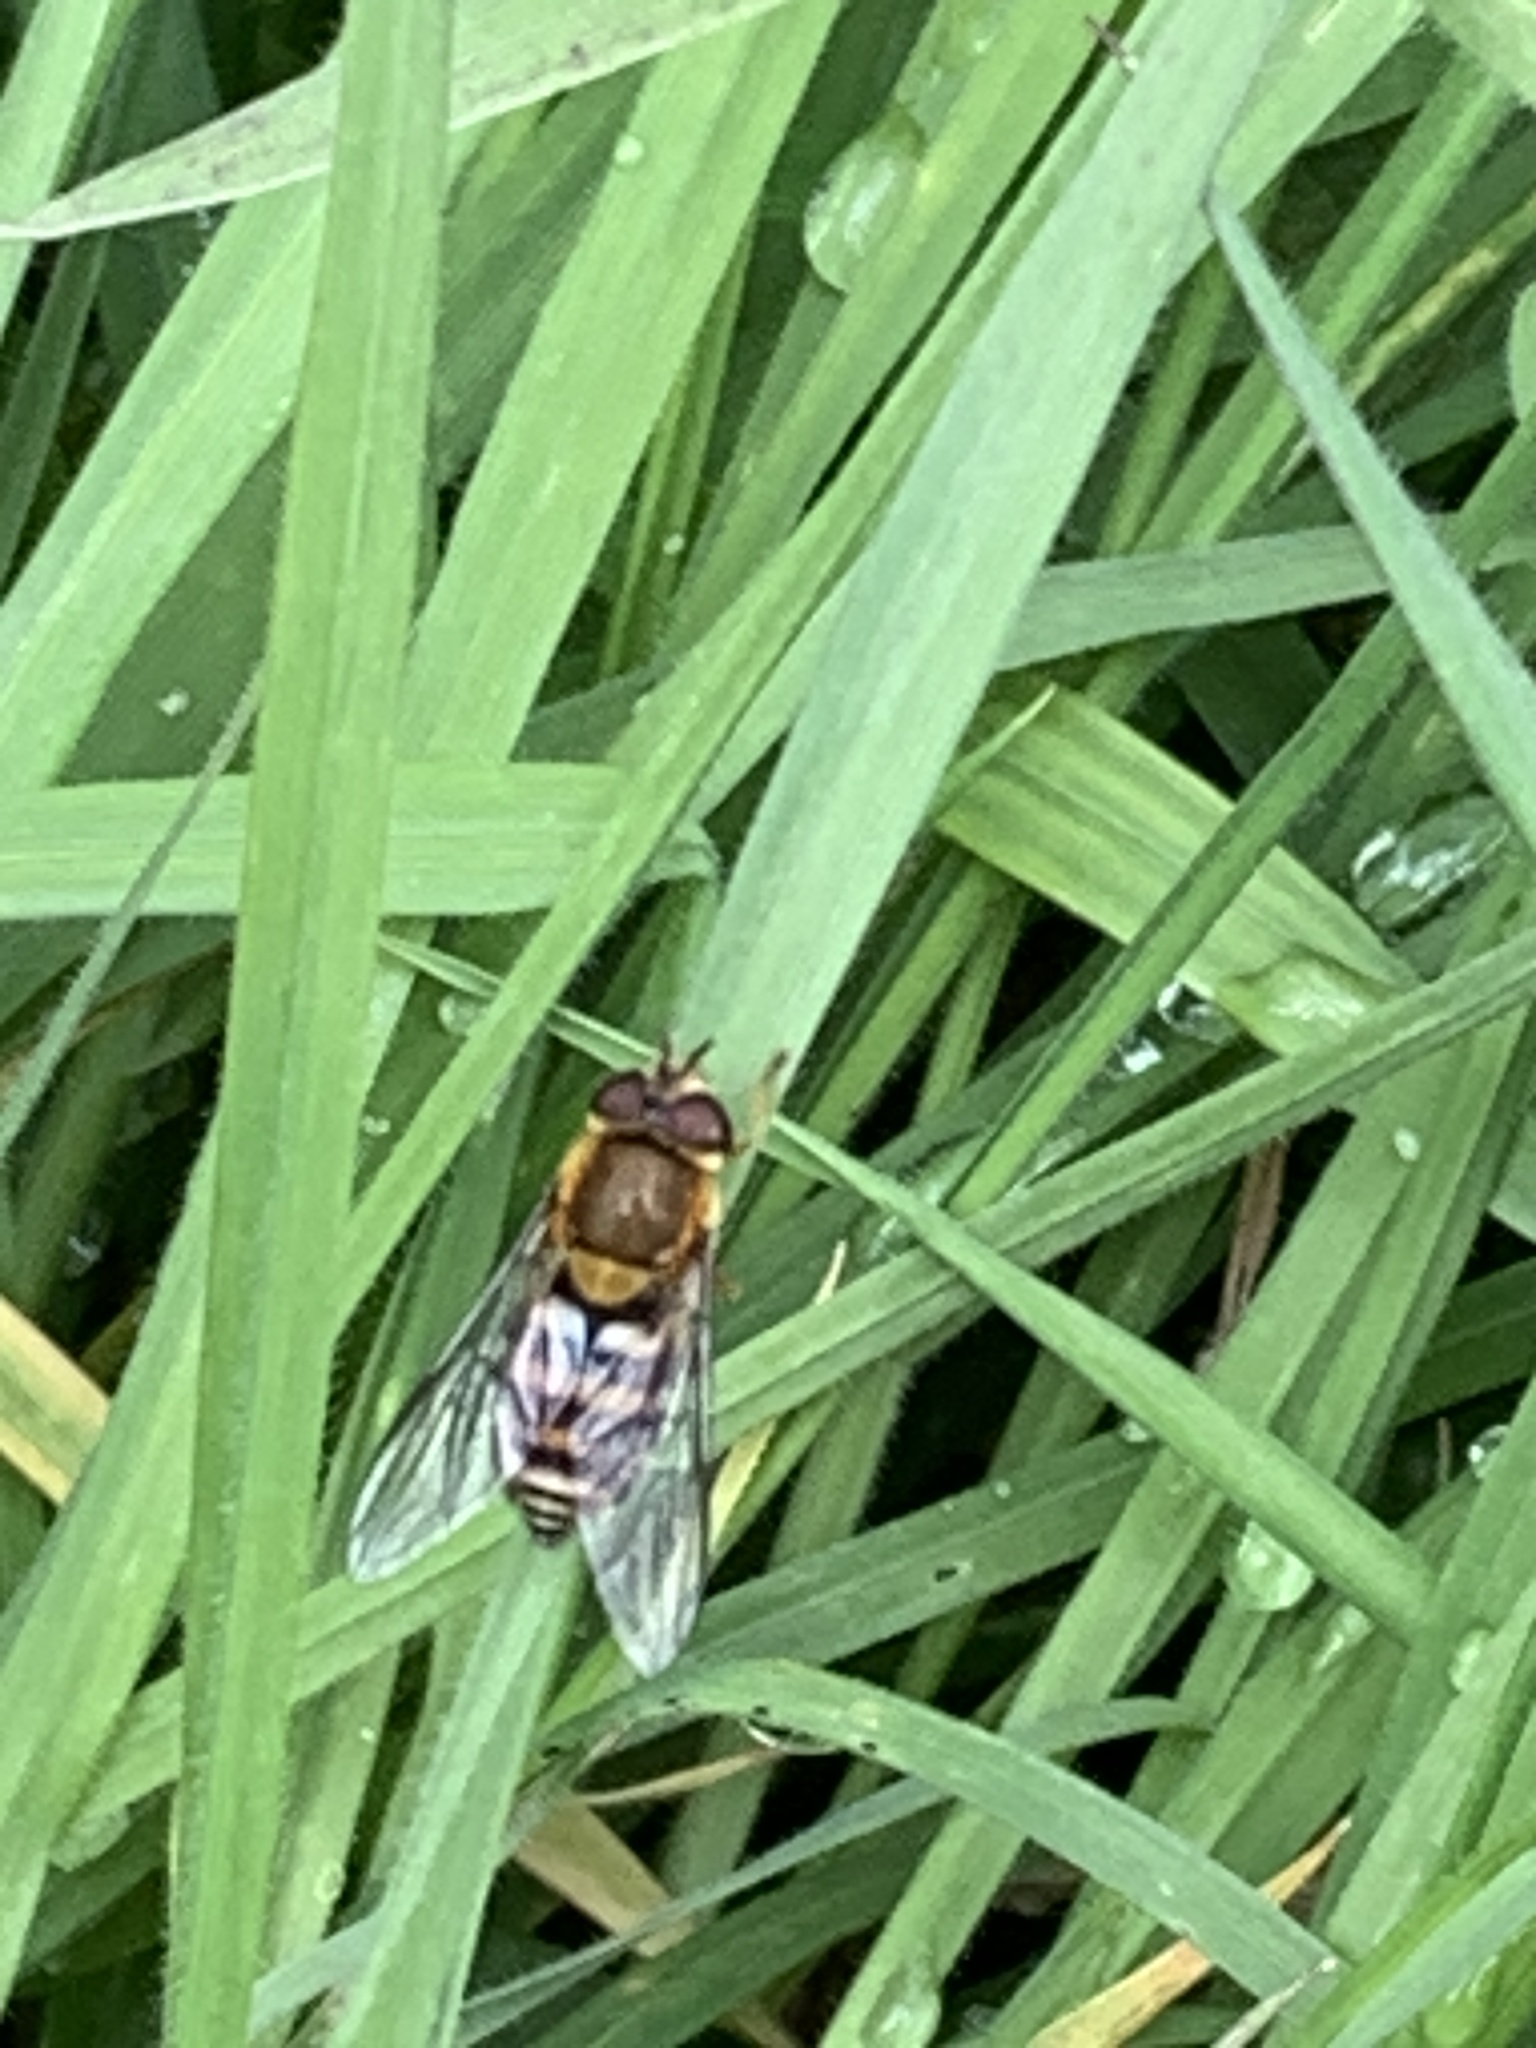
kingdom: Animalia
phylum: Arthropoda
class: Insecta
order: Diptera
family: Syrphidae
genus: Syrphus
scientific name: Syrphus ribesii
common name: Common flower fly
